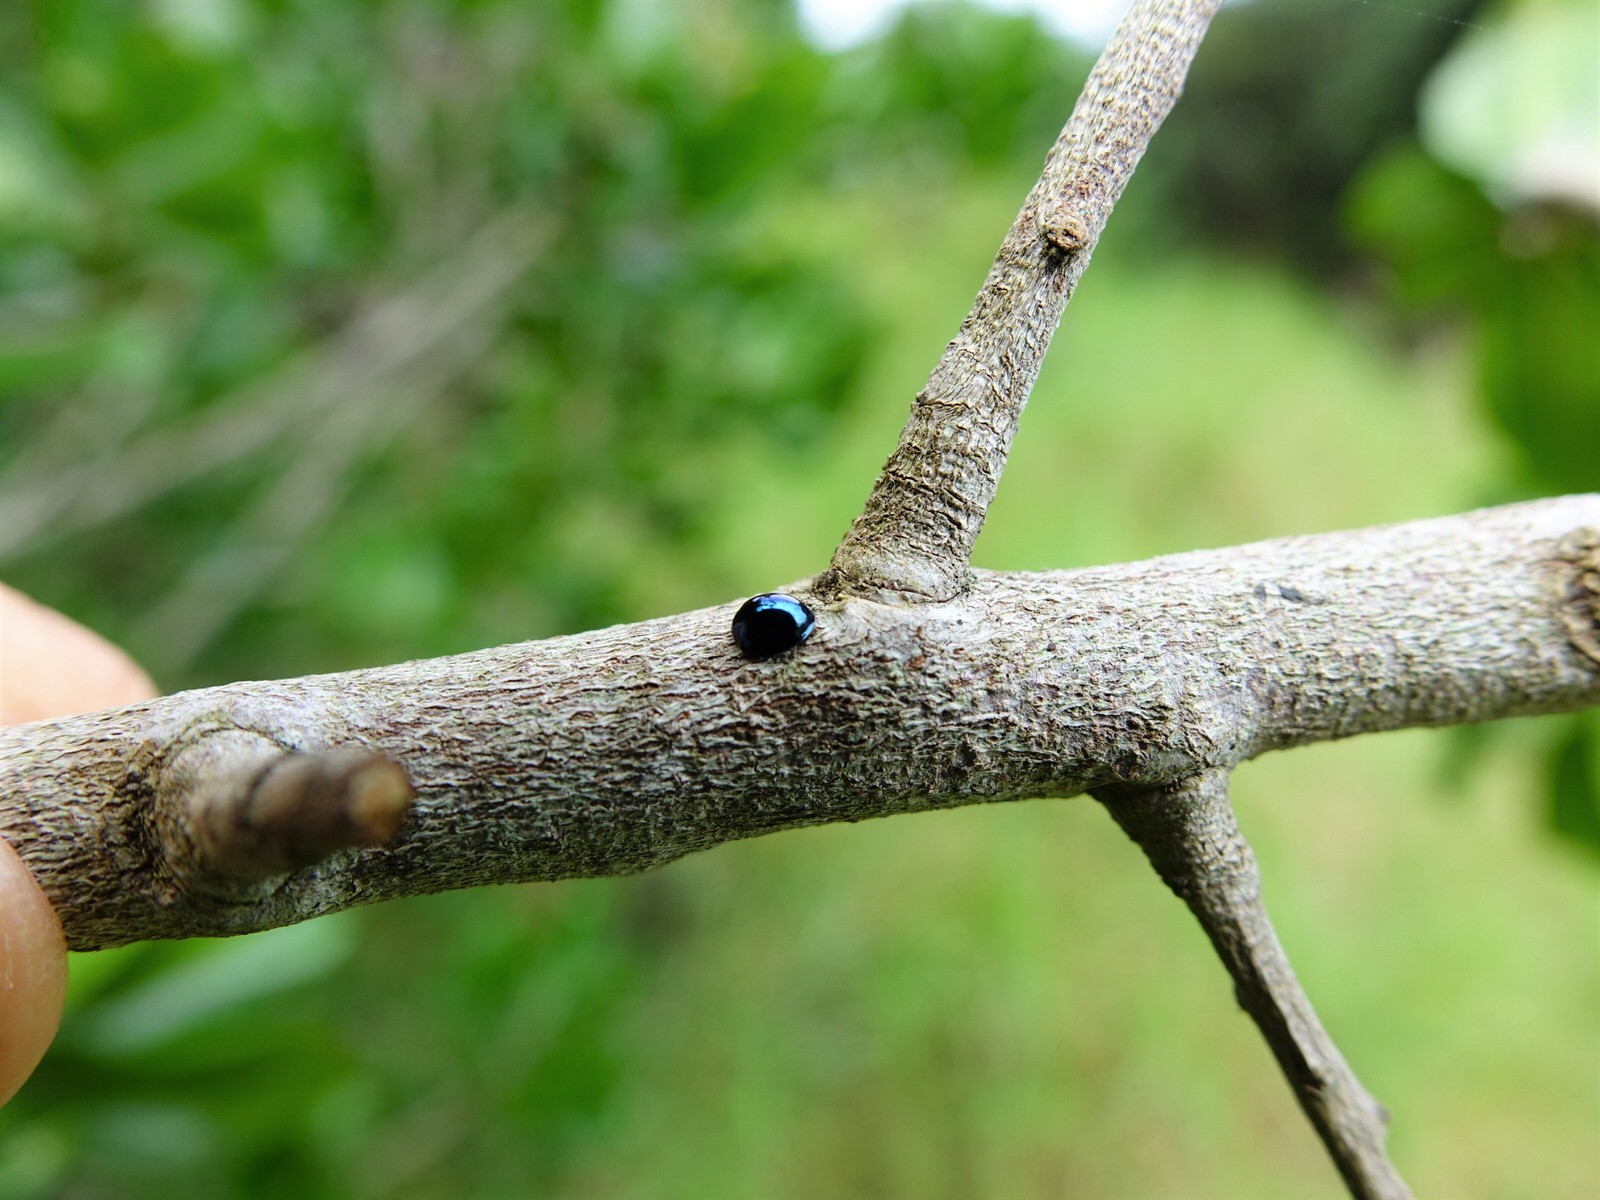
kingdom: Animalia
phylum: Arthropoda
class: Insecta
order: Coleoptera
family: Coccinellidae
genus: Halmus
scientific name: Halmus chalybeus
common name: Steel blue ladybird beetle
